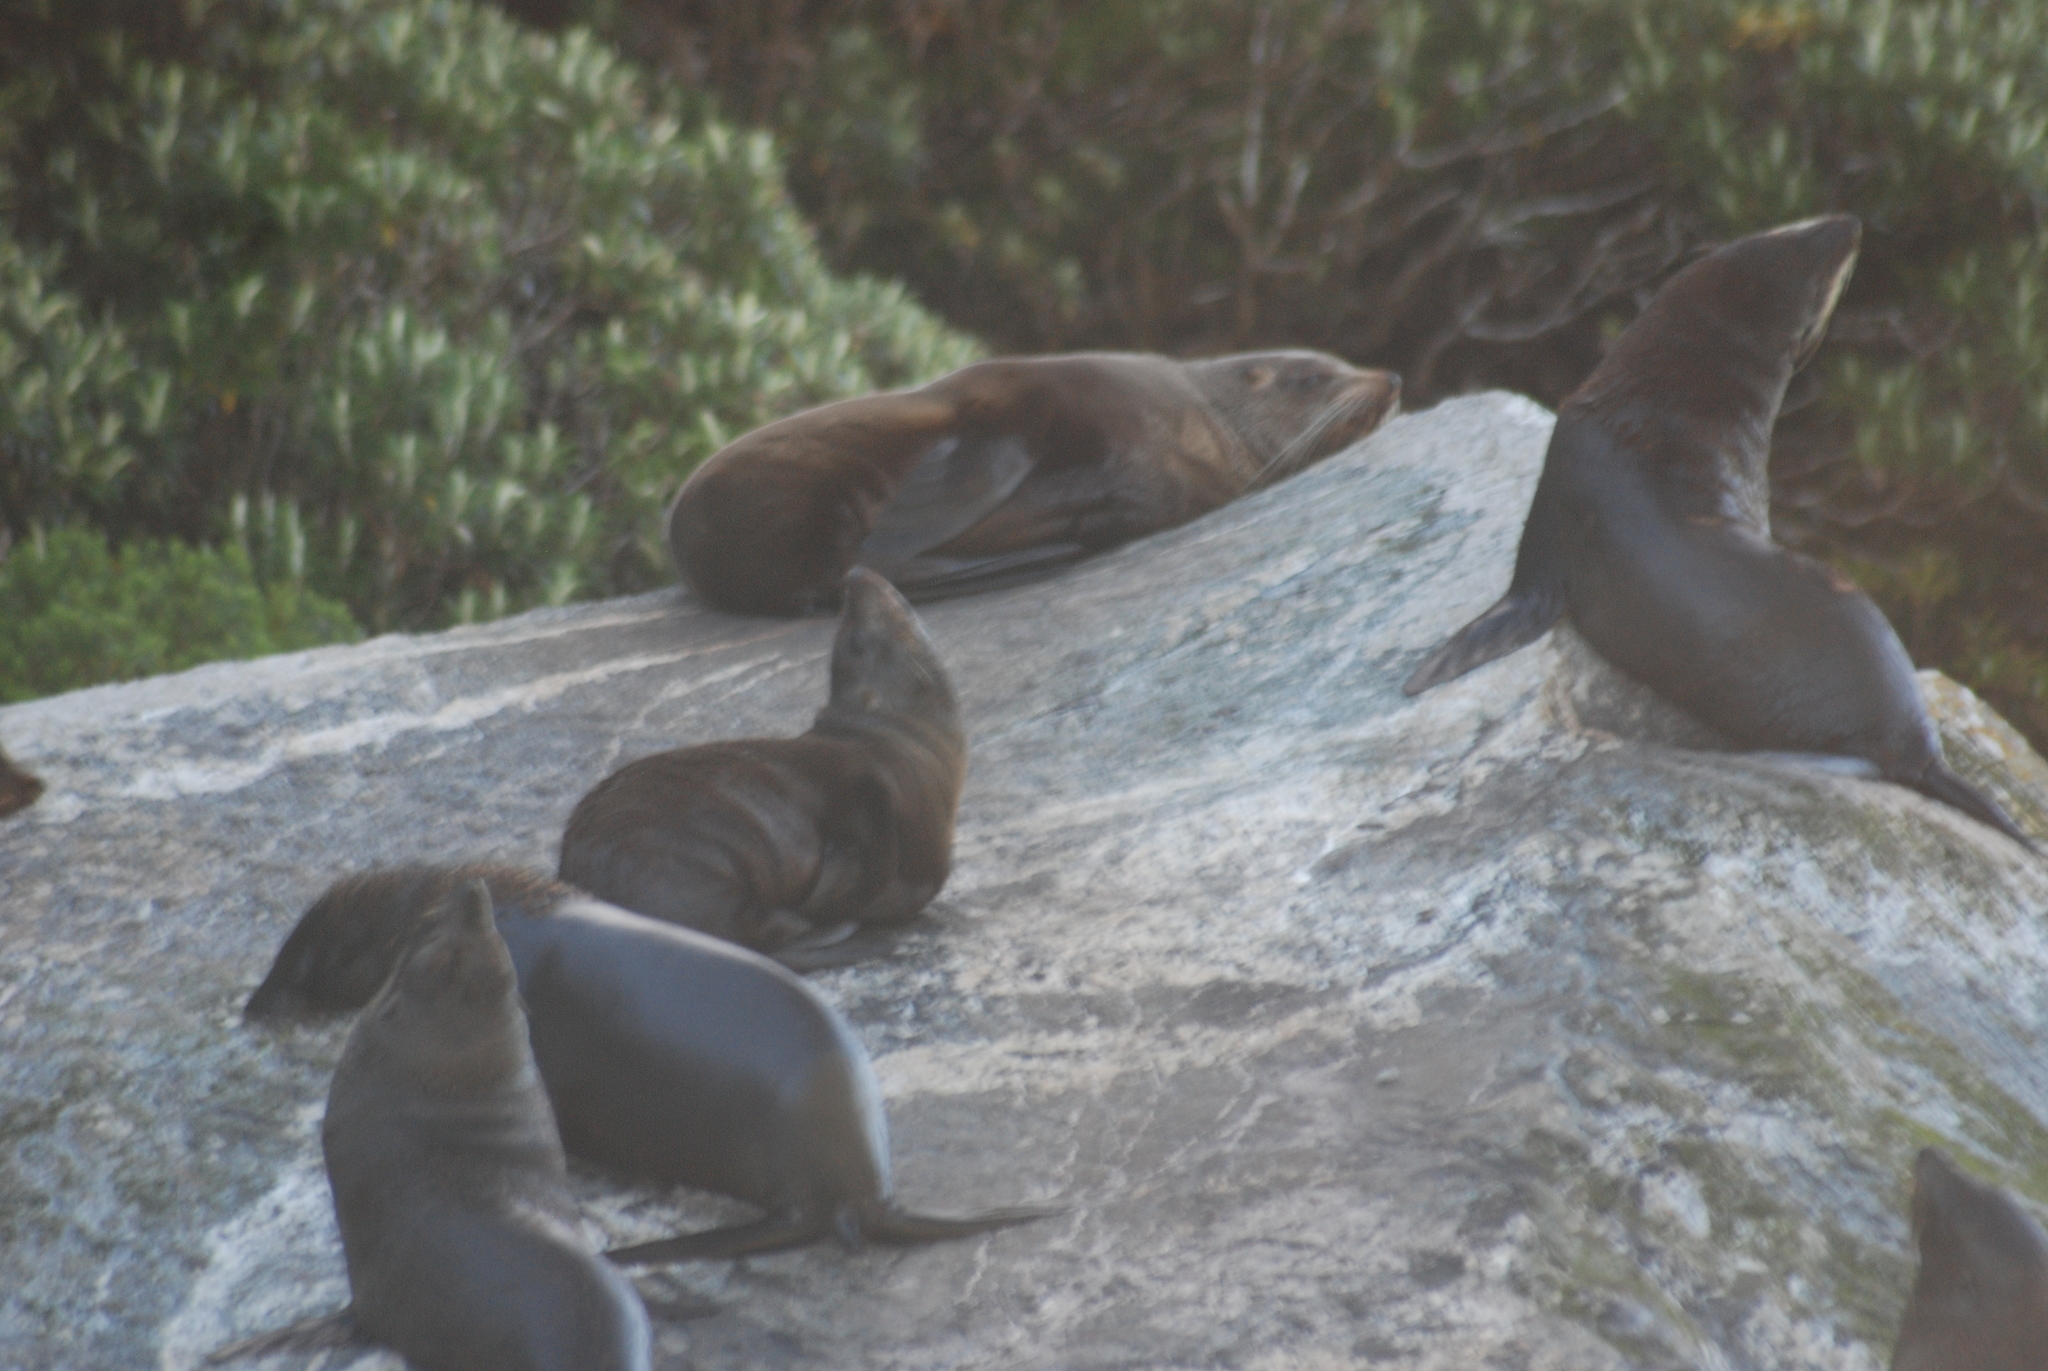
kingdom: Animalia
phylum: Chordata
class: Mammalia
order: Carnivora
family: Otariidae
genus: Arctocephalus
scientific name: Arctocephalus forsteri
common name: New zealand fur seal
